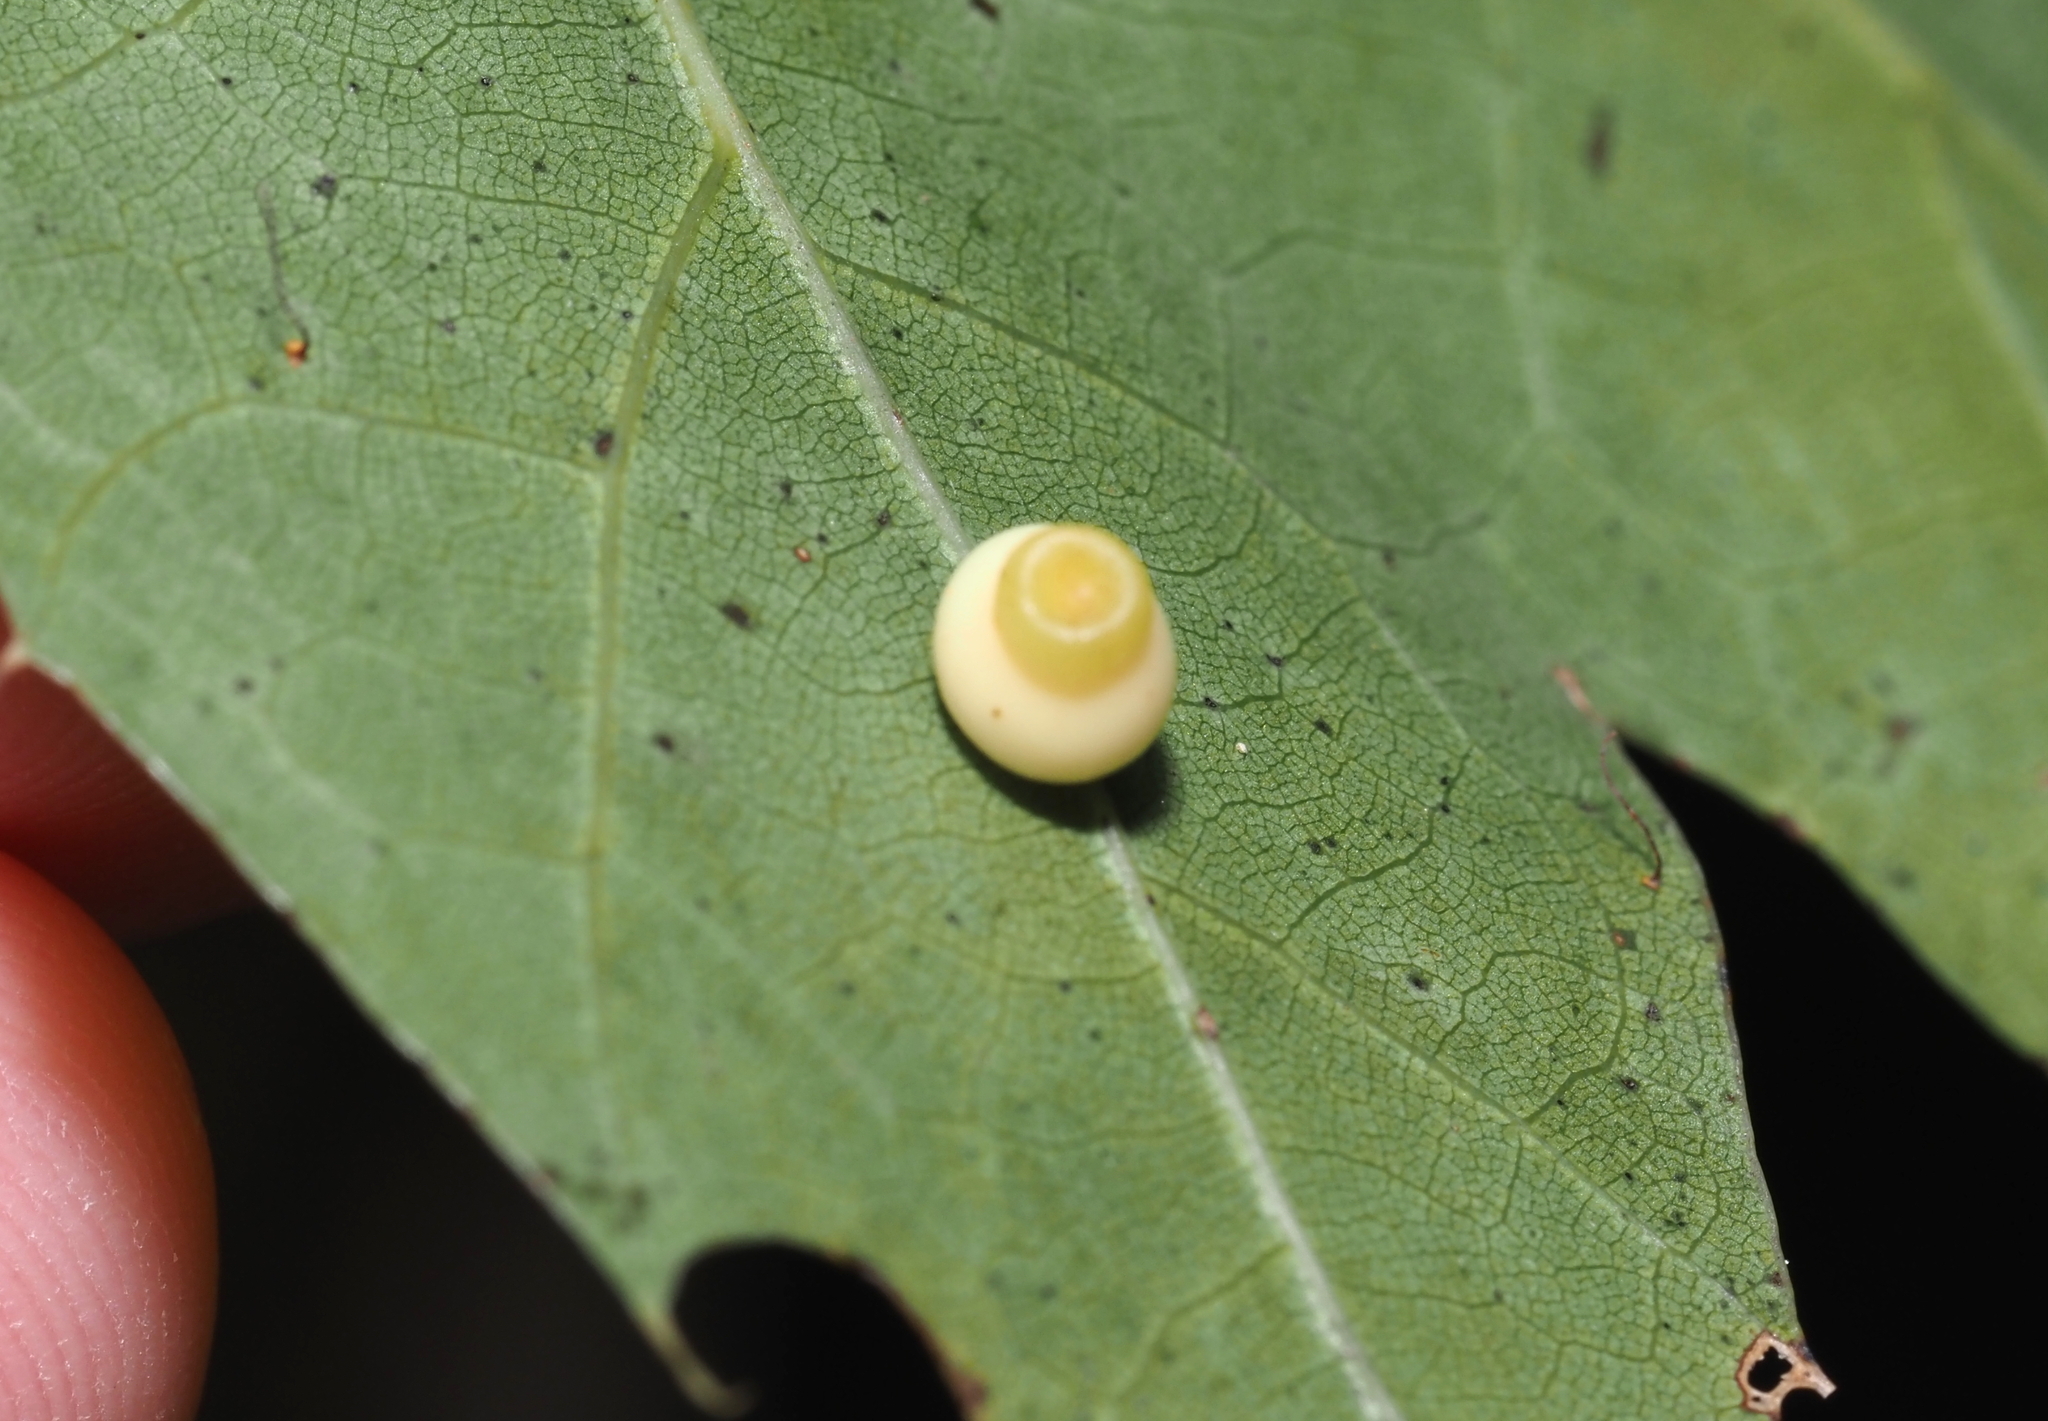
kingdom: Animalia
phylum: Arthropoda
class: Insecta
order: Hymenoptera
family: Cynipidae
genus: Kokkocynips
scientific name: Kokkocynips rileyi
